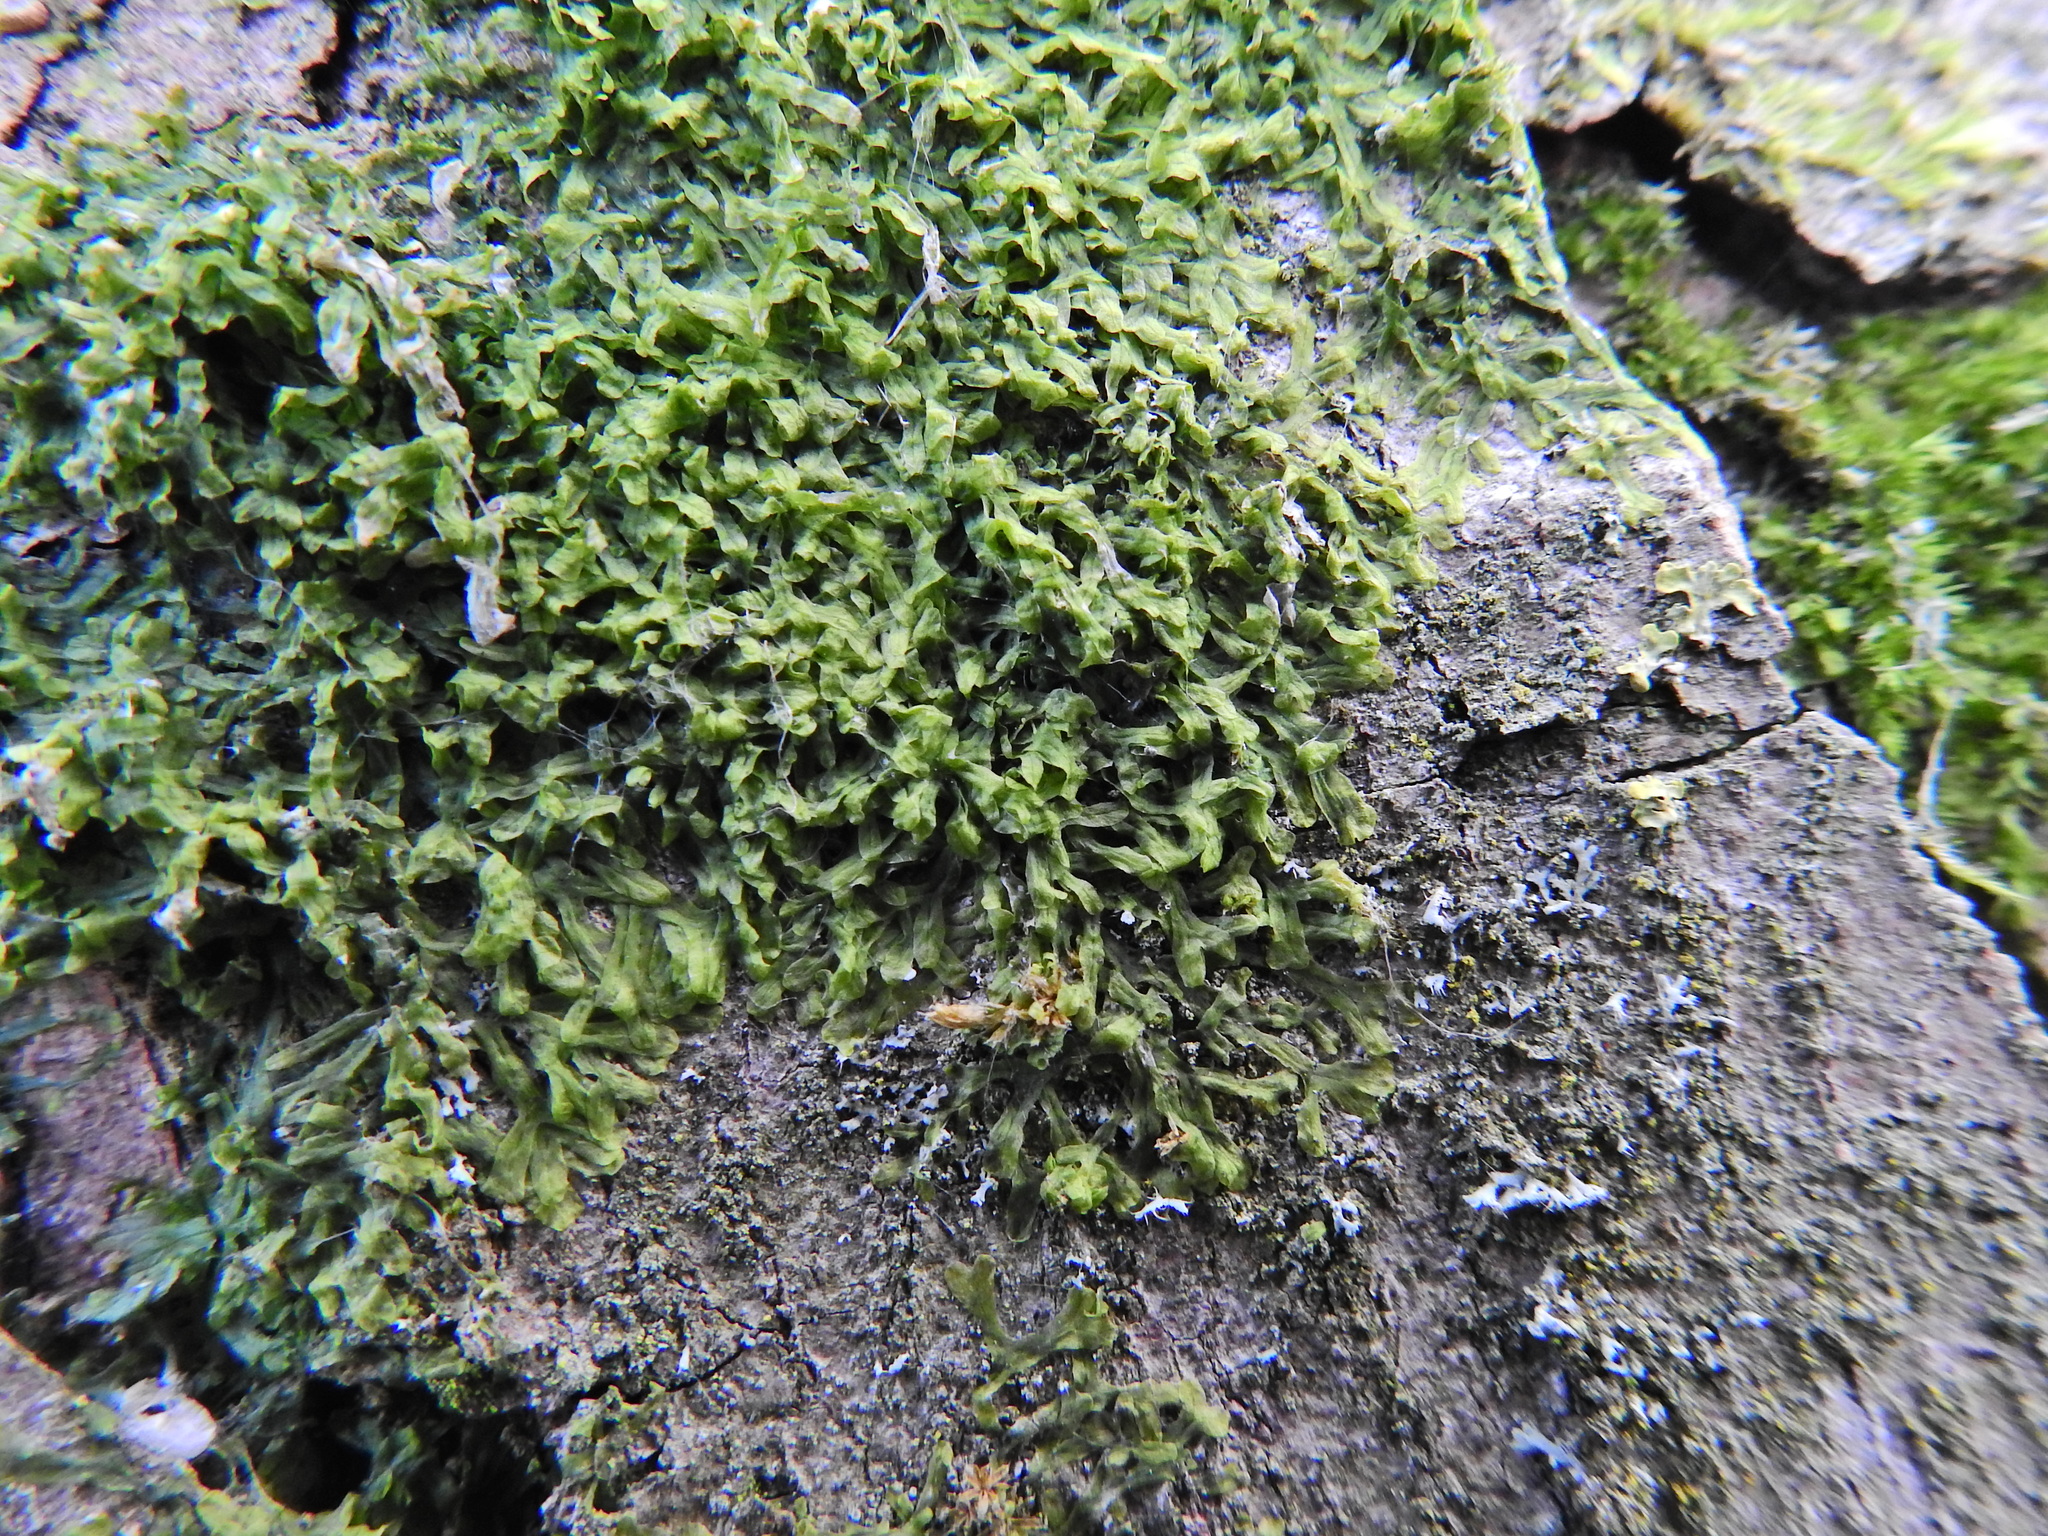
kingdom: Plantae
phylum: Marchantiophyta
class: Jungermanniopsida
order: Metzgeriales
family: Metzgeriaceae
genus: Metzgeria
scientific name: Metzgeria furcata
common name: Forked veilwort
